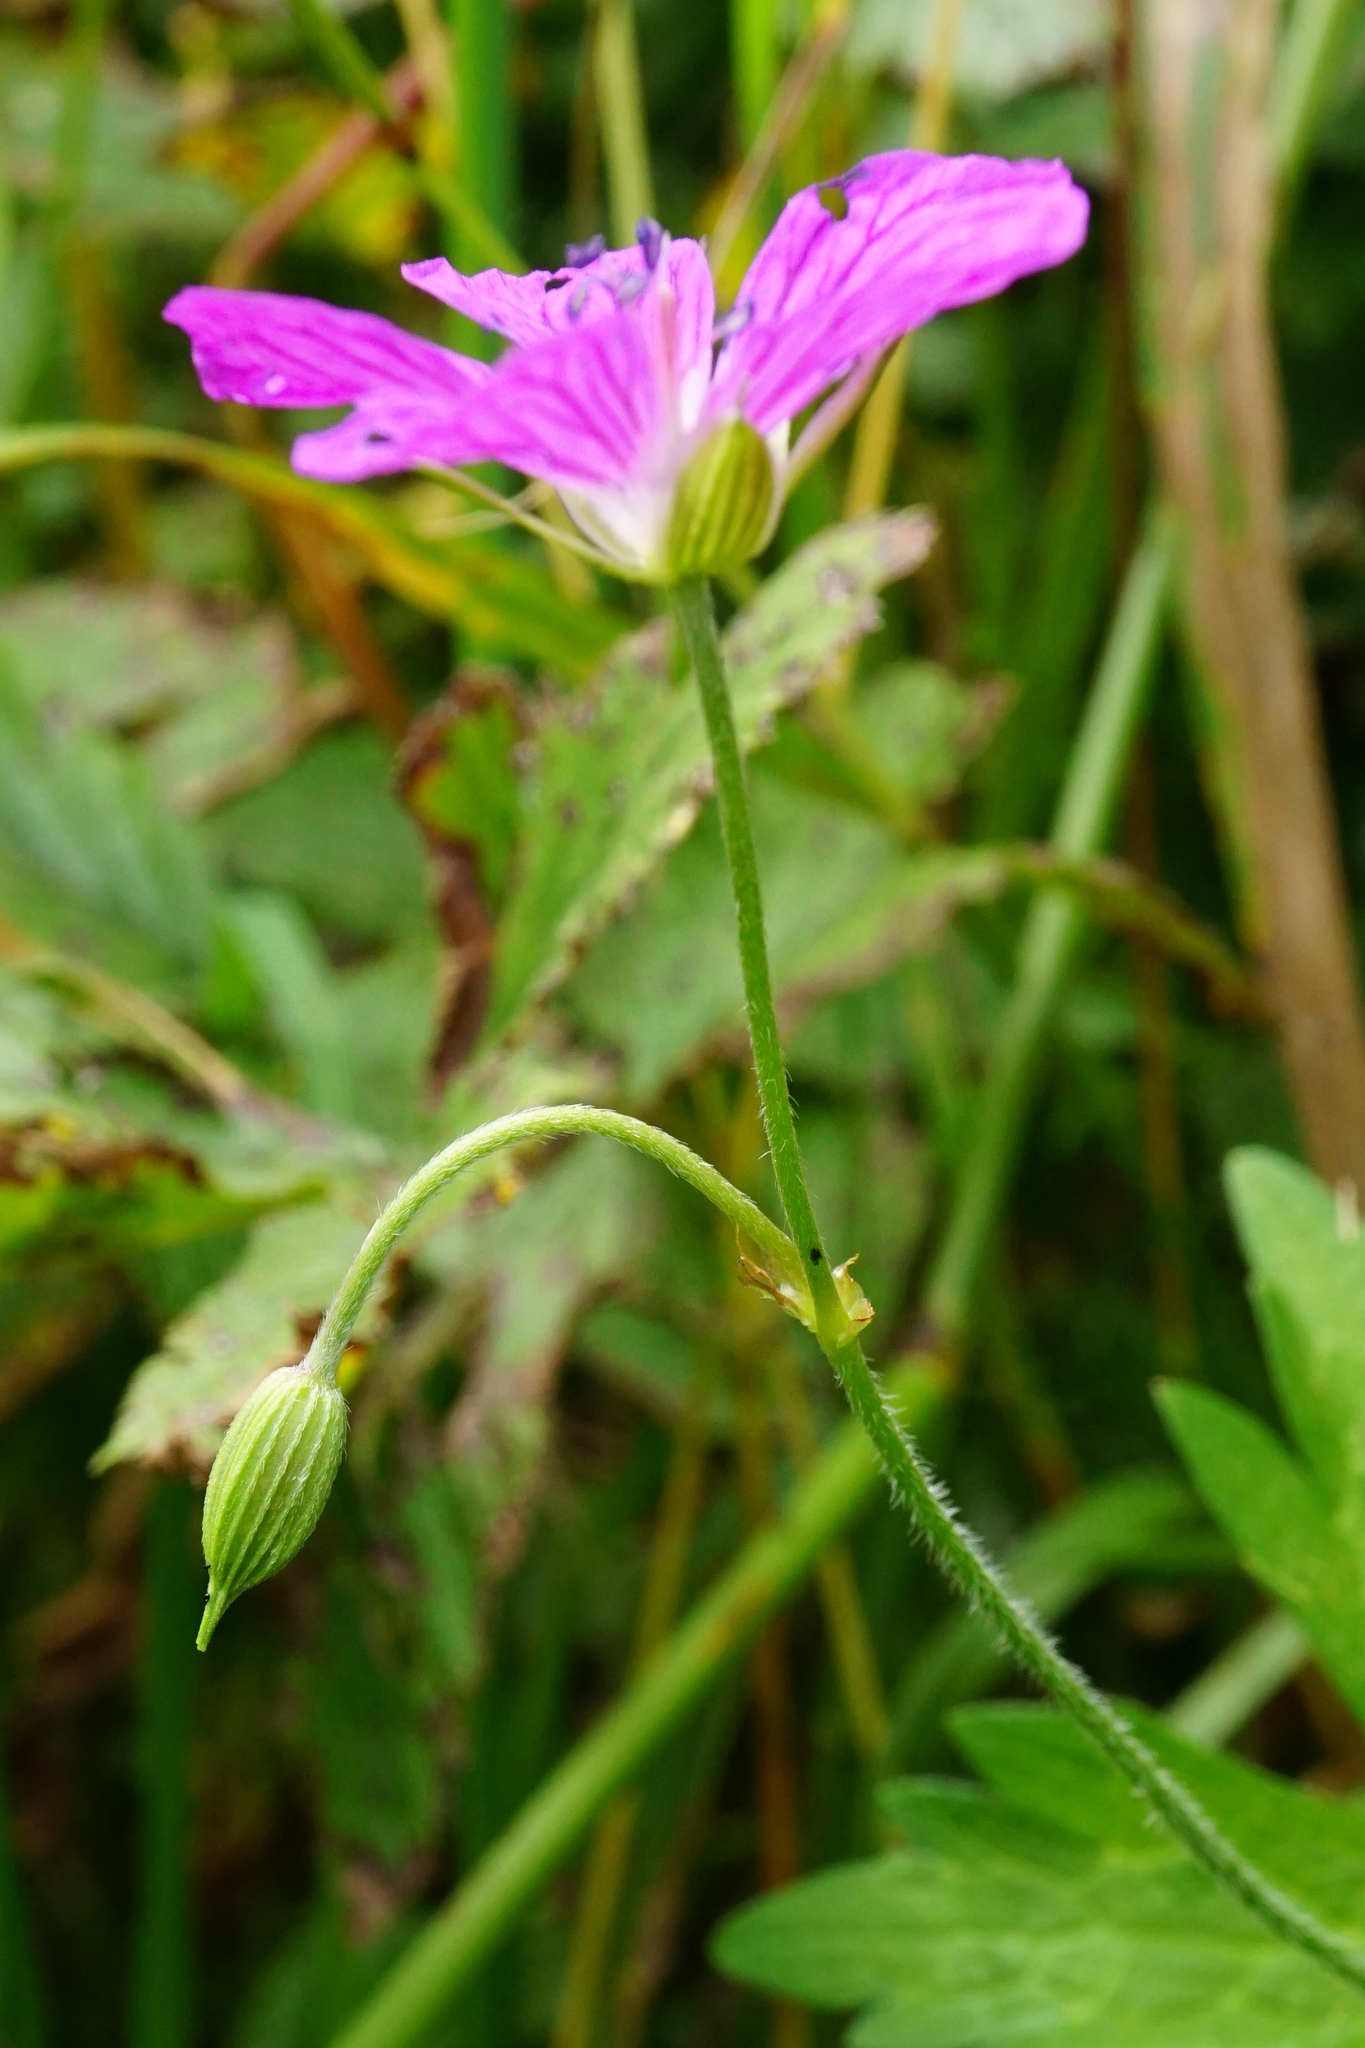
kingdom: Plantae
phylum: Tracheophyta
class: Magnoliopsida
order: Geraniales
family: Geraniaceae
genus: Geranium
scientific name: Geranium palustre
